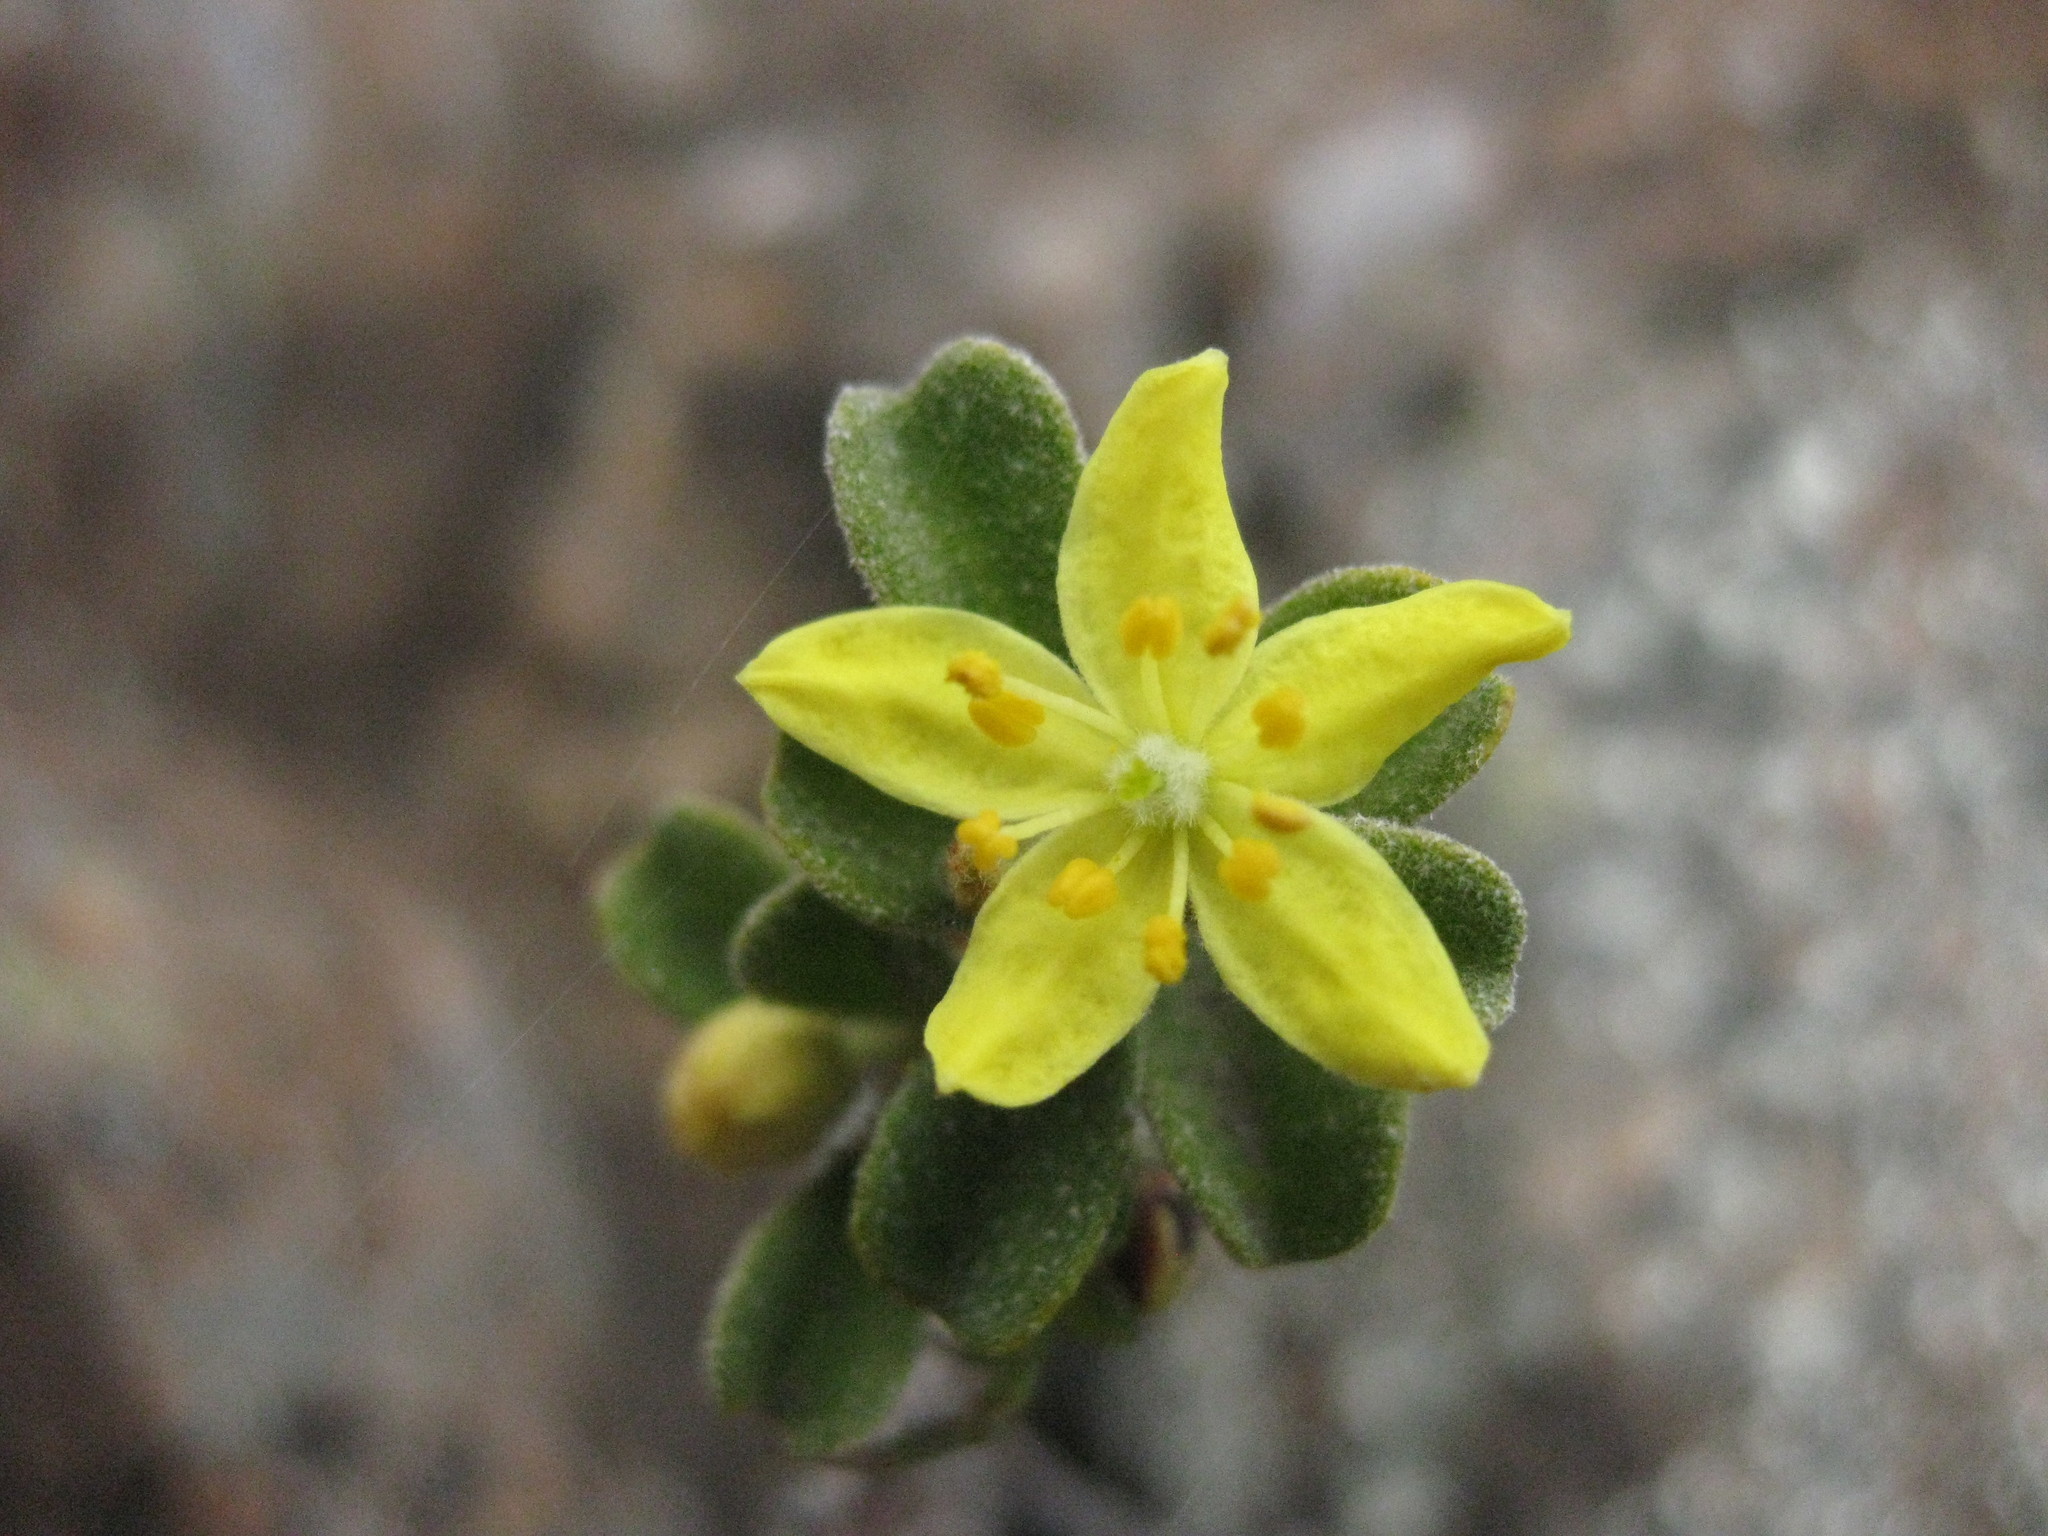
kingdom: Plantae
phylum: Tracheophyta
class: Magnoliopsida
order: Sapindales
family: Rutaceae
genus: Asterolasia
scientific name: Asterolasia rupestris
